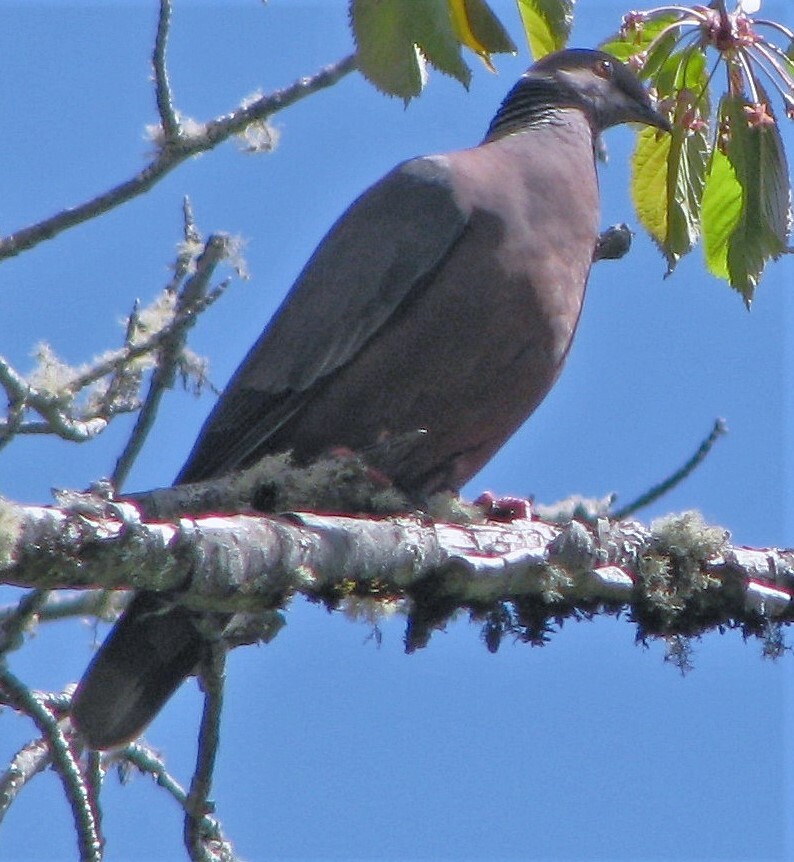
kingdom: Animalia
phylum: Chordata
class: Aves
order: Columbiformes
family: Columbidae
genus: Patagioenas
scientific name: Patagioenas araucana
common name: Chilean pigeon
